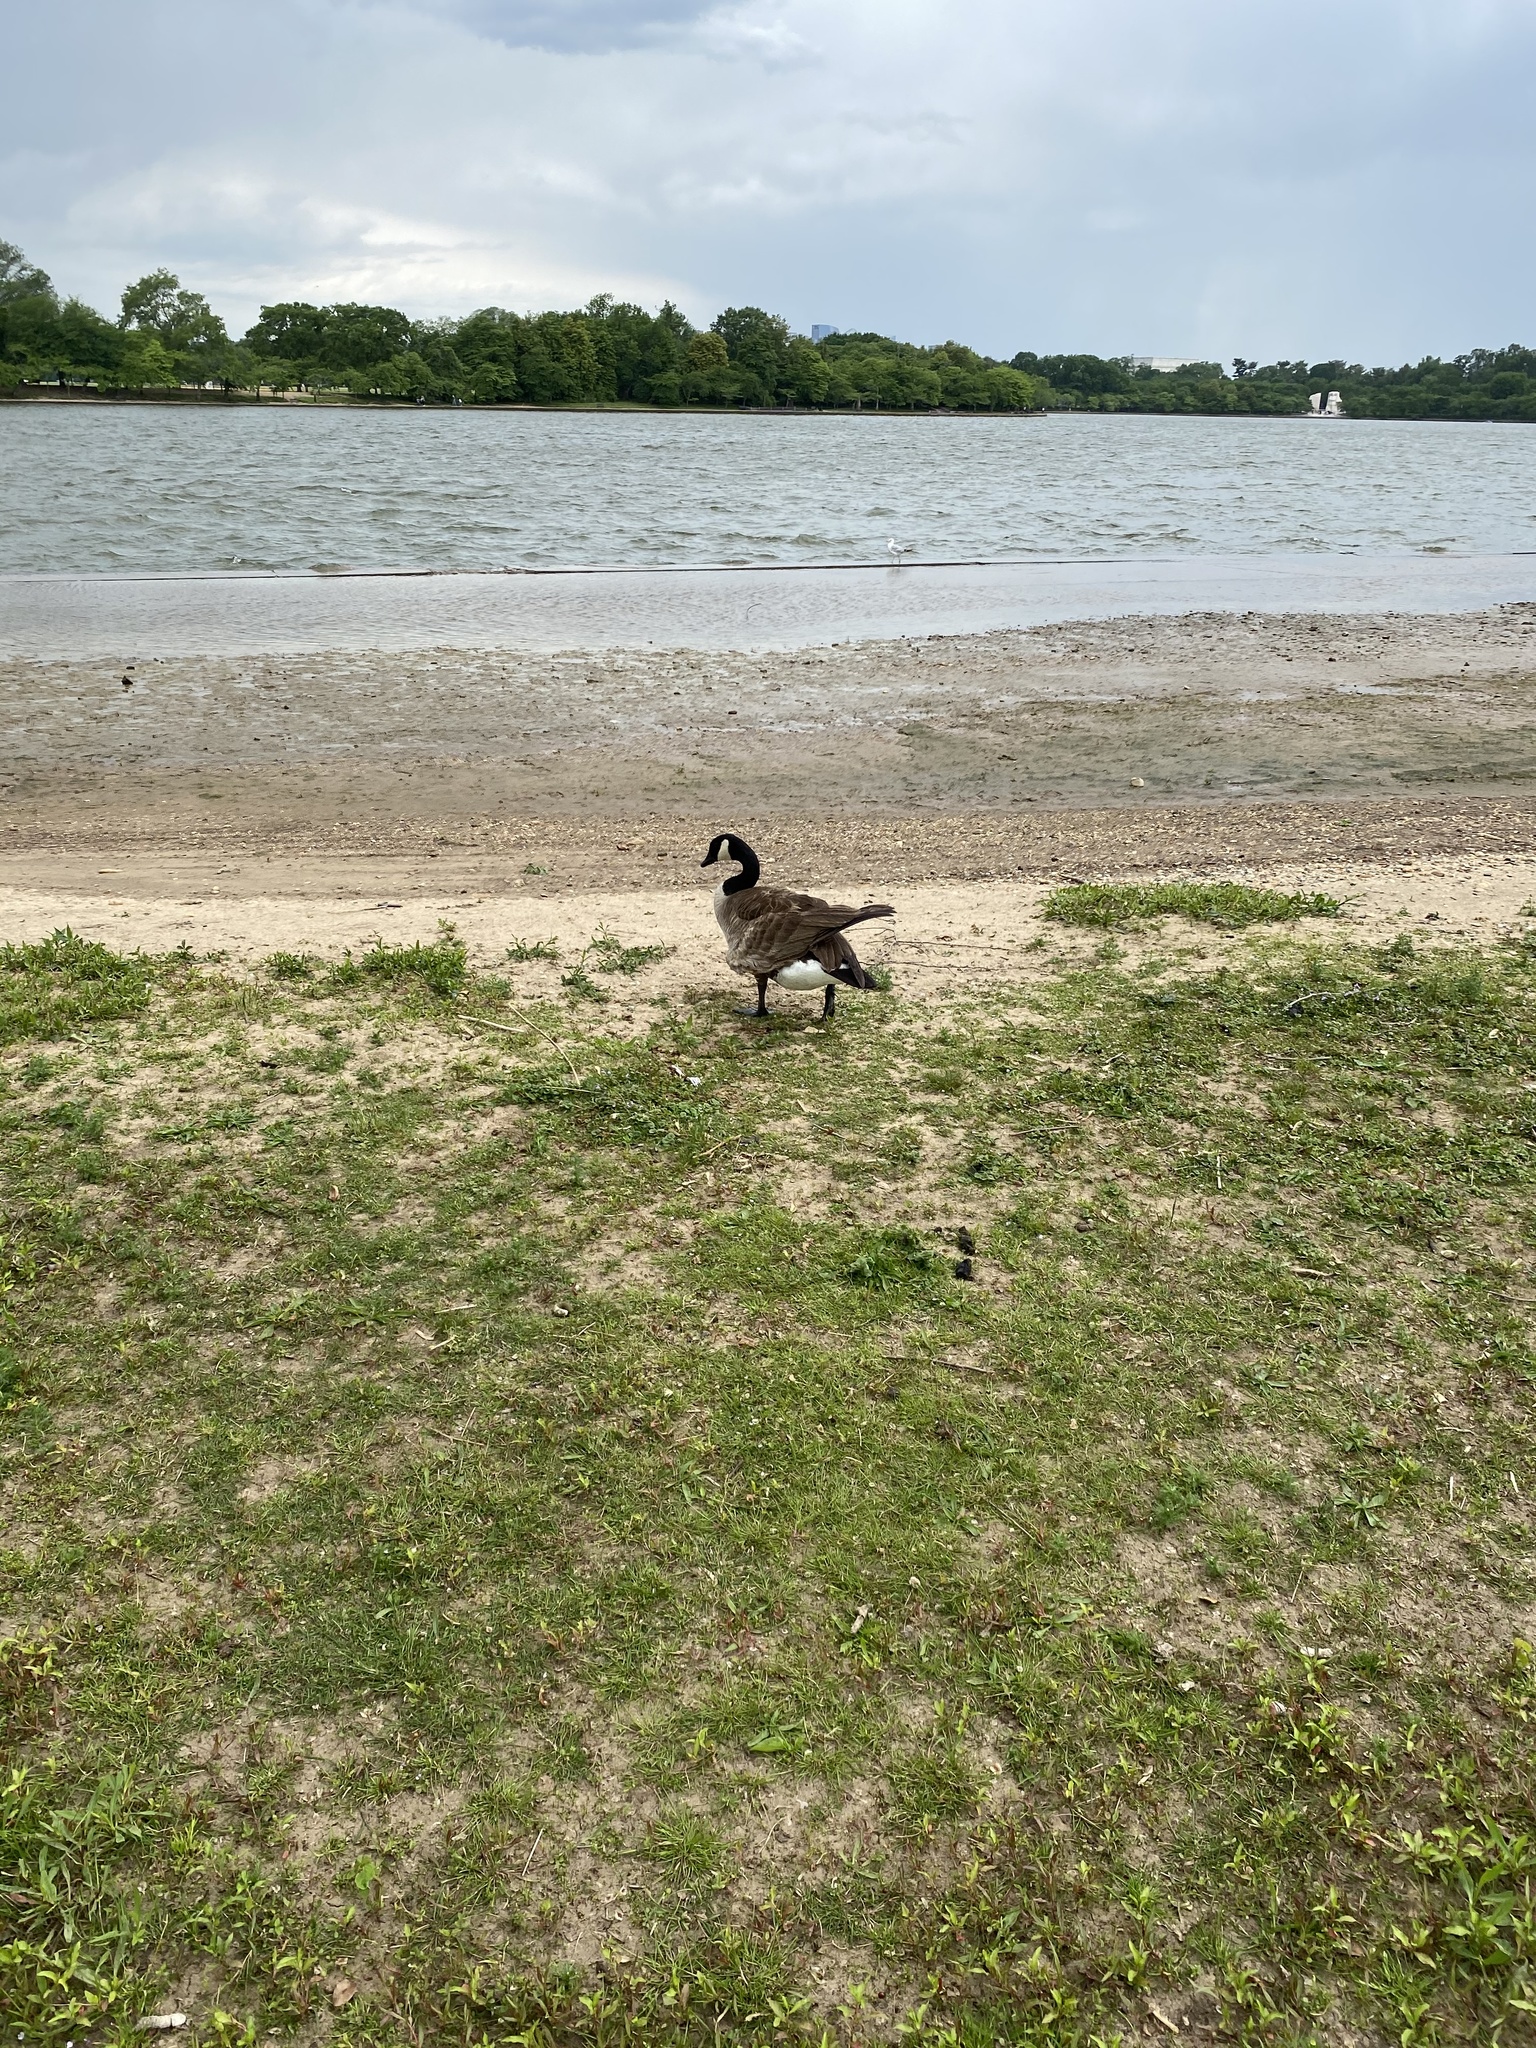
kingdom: Animalia
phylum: Chordata
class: Aves
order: Anseriformes
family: Anatidae
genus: Branta
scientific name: Branta canadensis
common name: Canada goose
